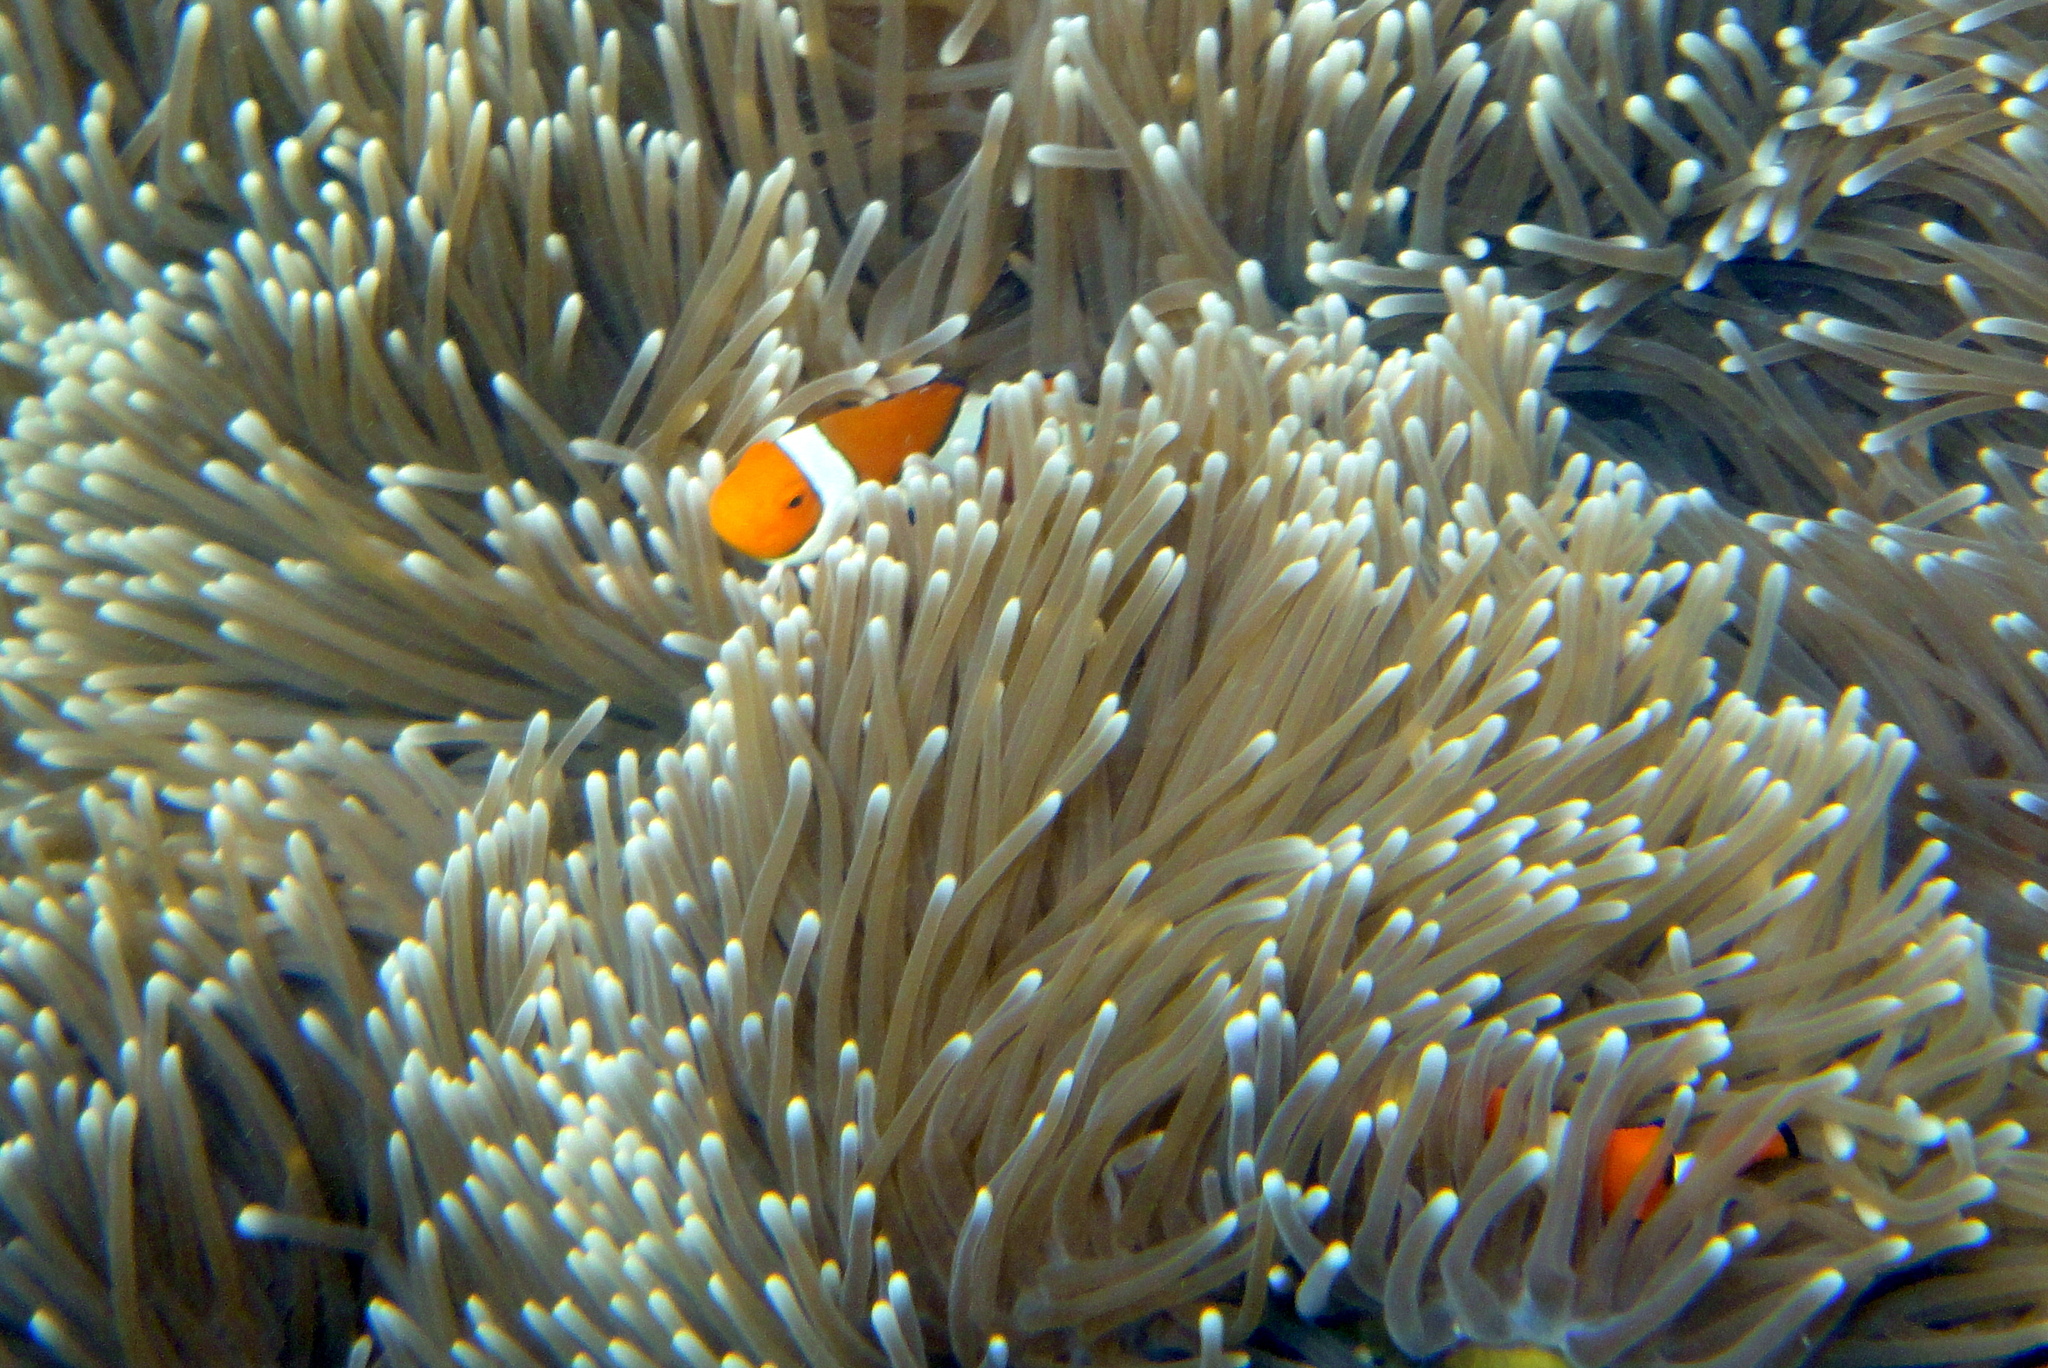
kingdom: Animalia
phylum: Chordata
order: Perciformes
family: Pomacentridae
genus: Amphiprion
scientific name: Amphiprion percula
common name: Clown anemonefish
